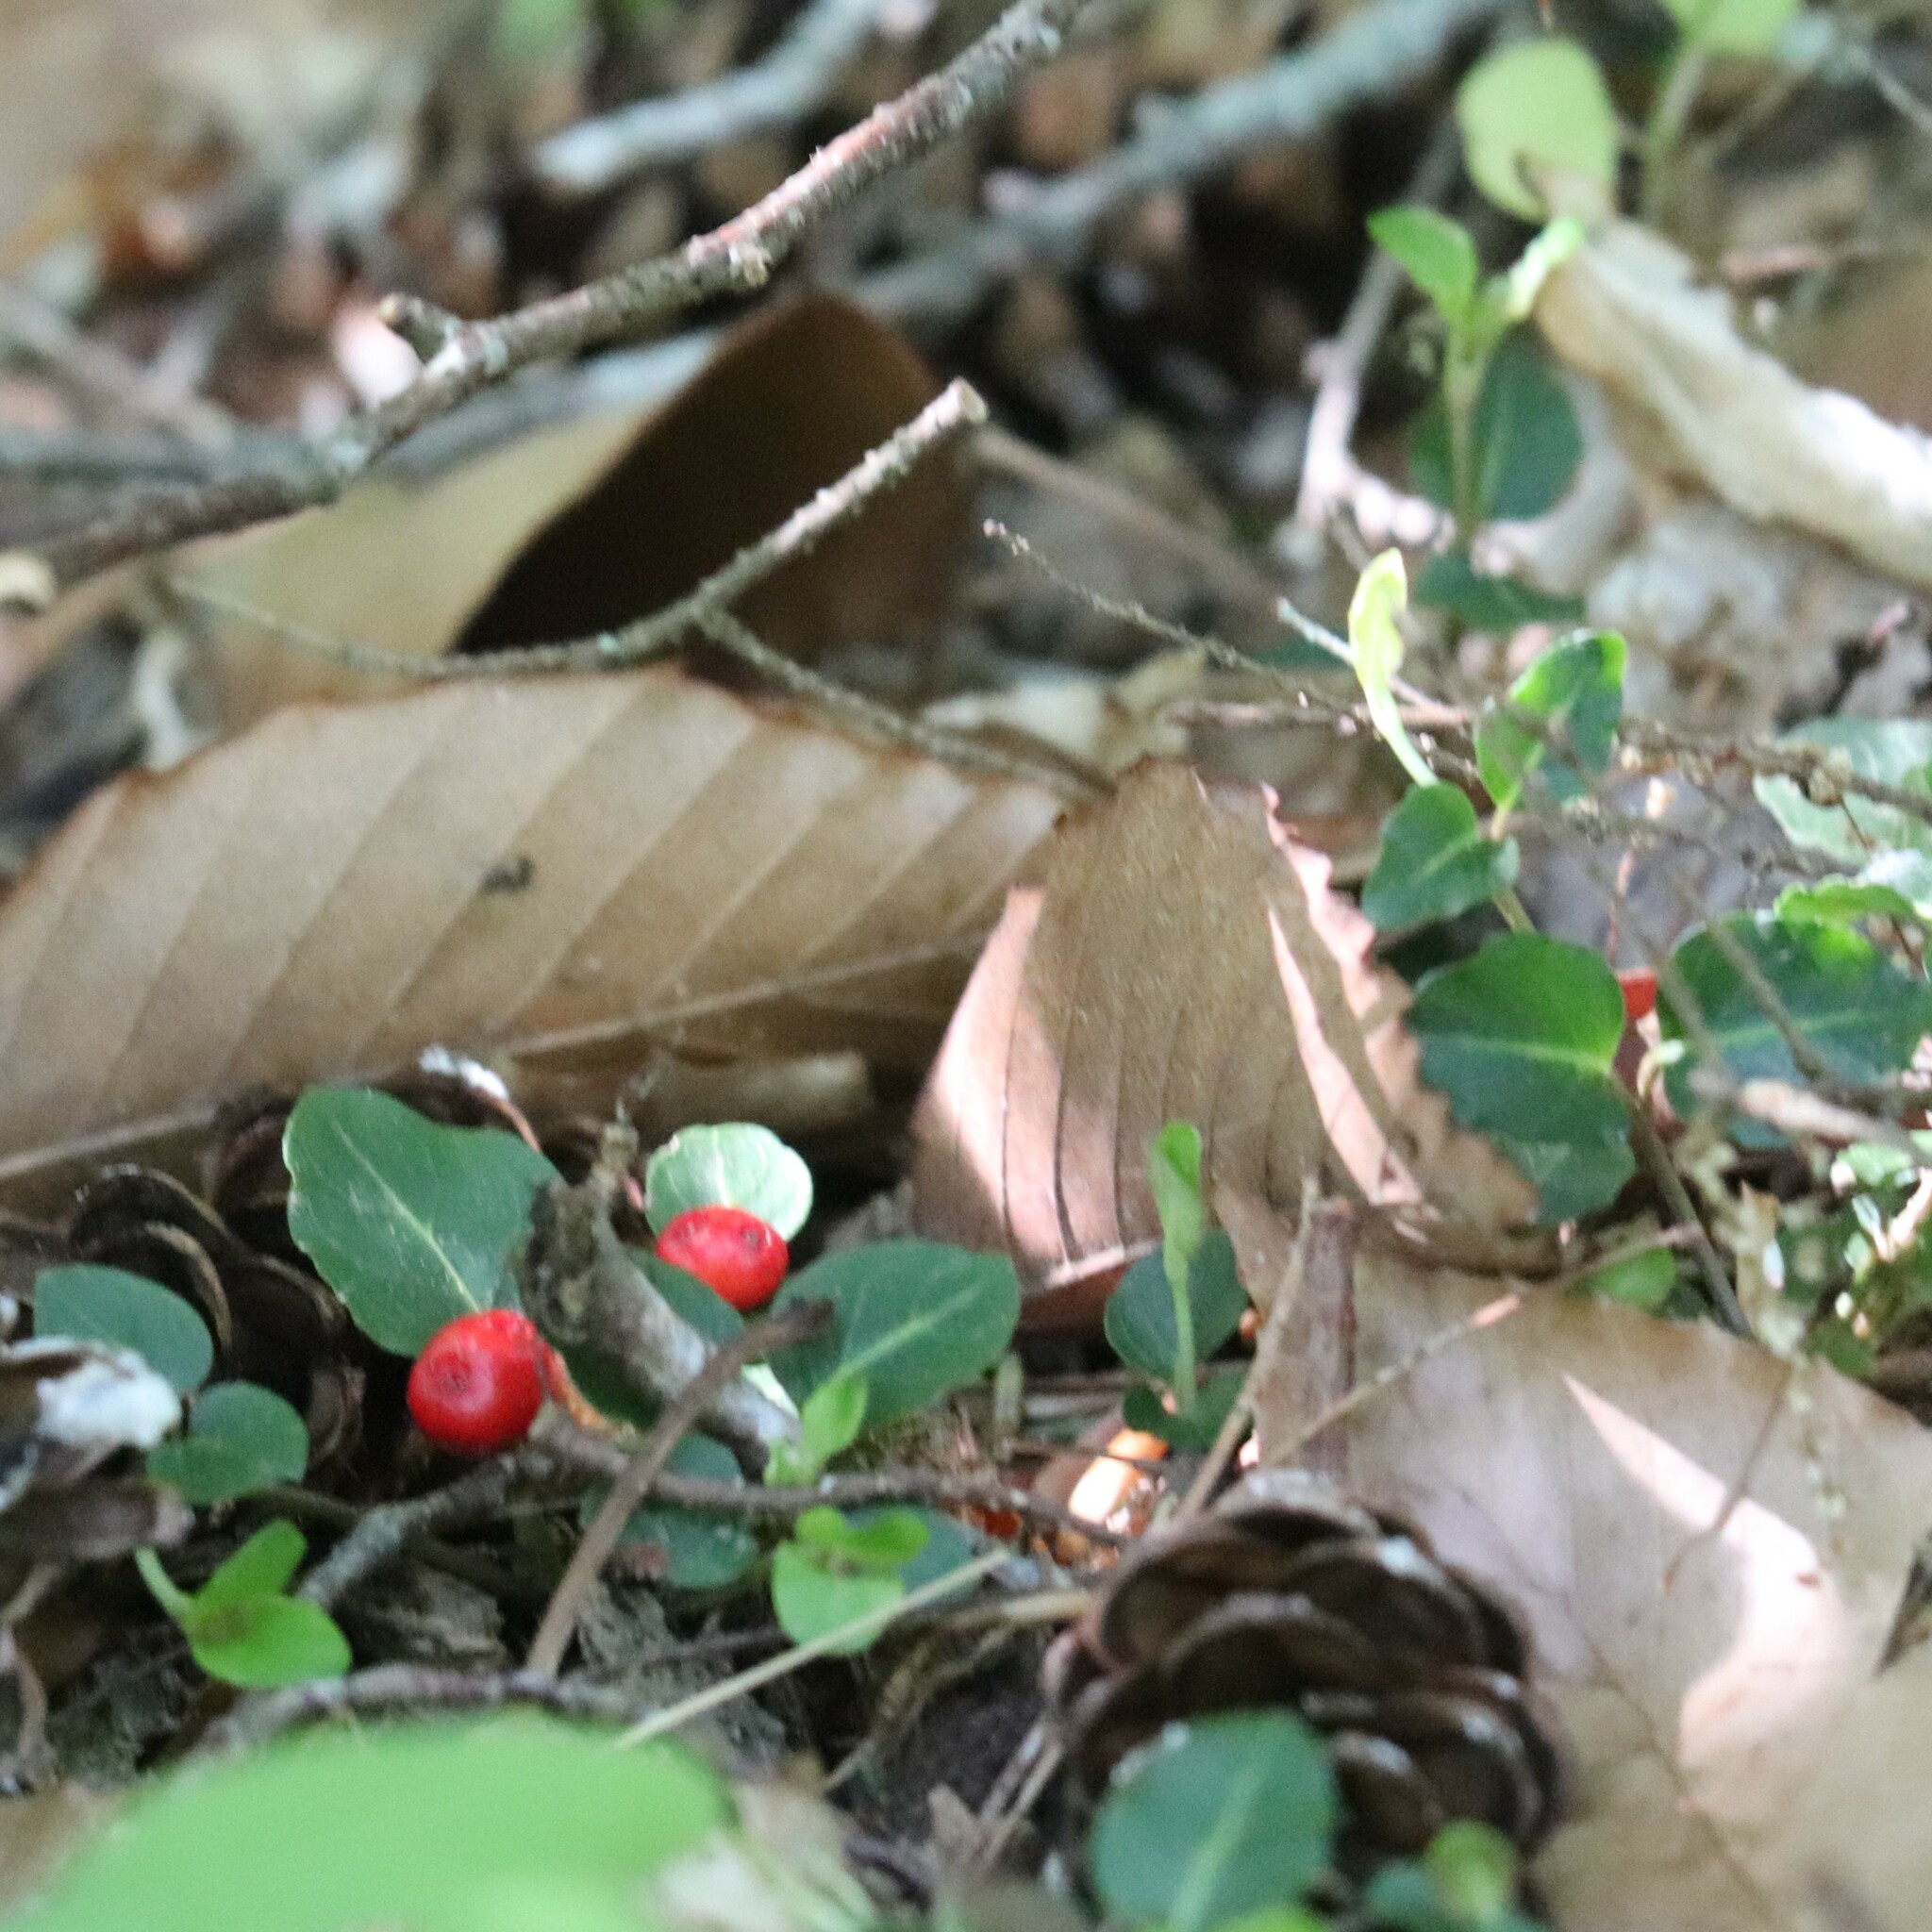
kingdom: Plantae
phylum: Tracheophyta
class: Magnoliopsida
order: Gentianales
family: Rubiaceae
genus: Mitchella
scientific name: Mitchella repens
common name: Partridge-berry
